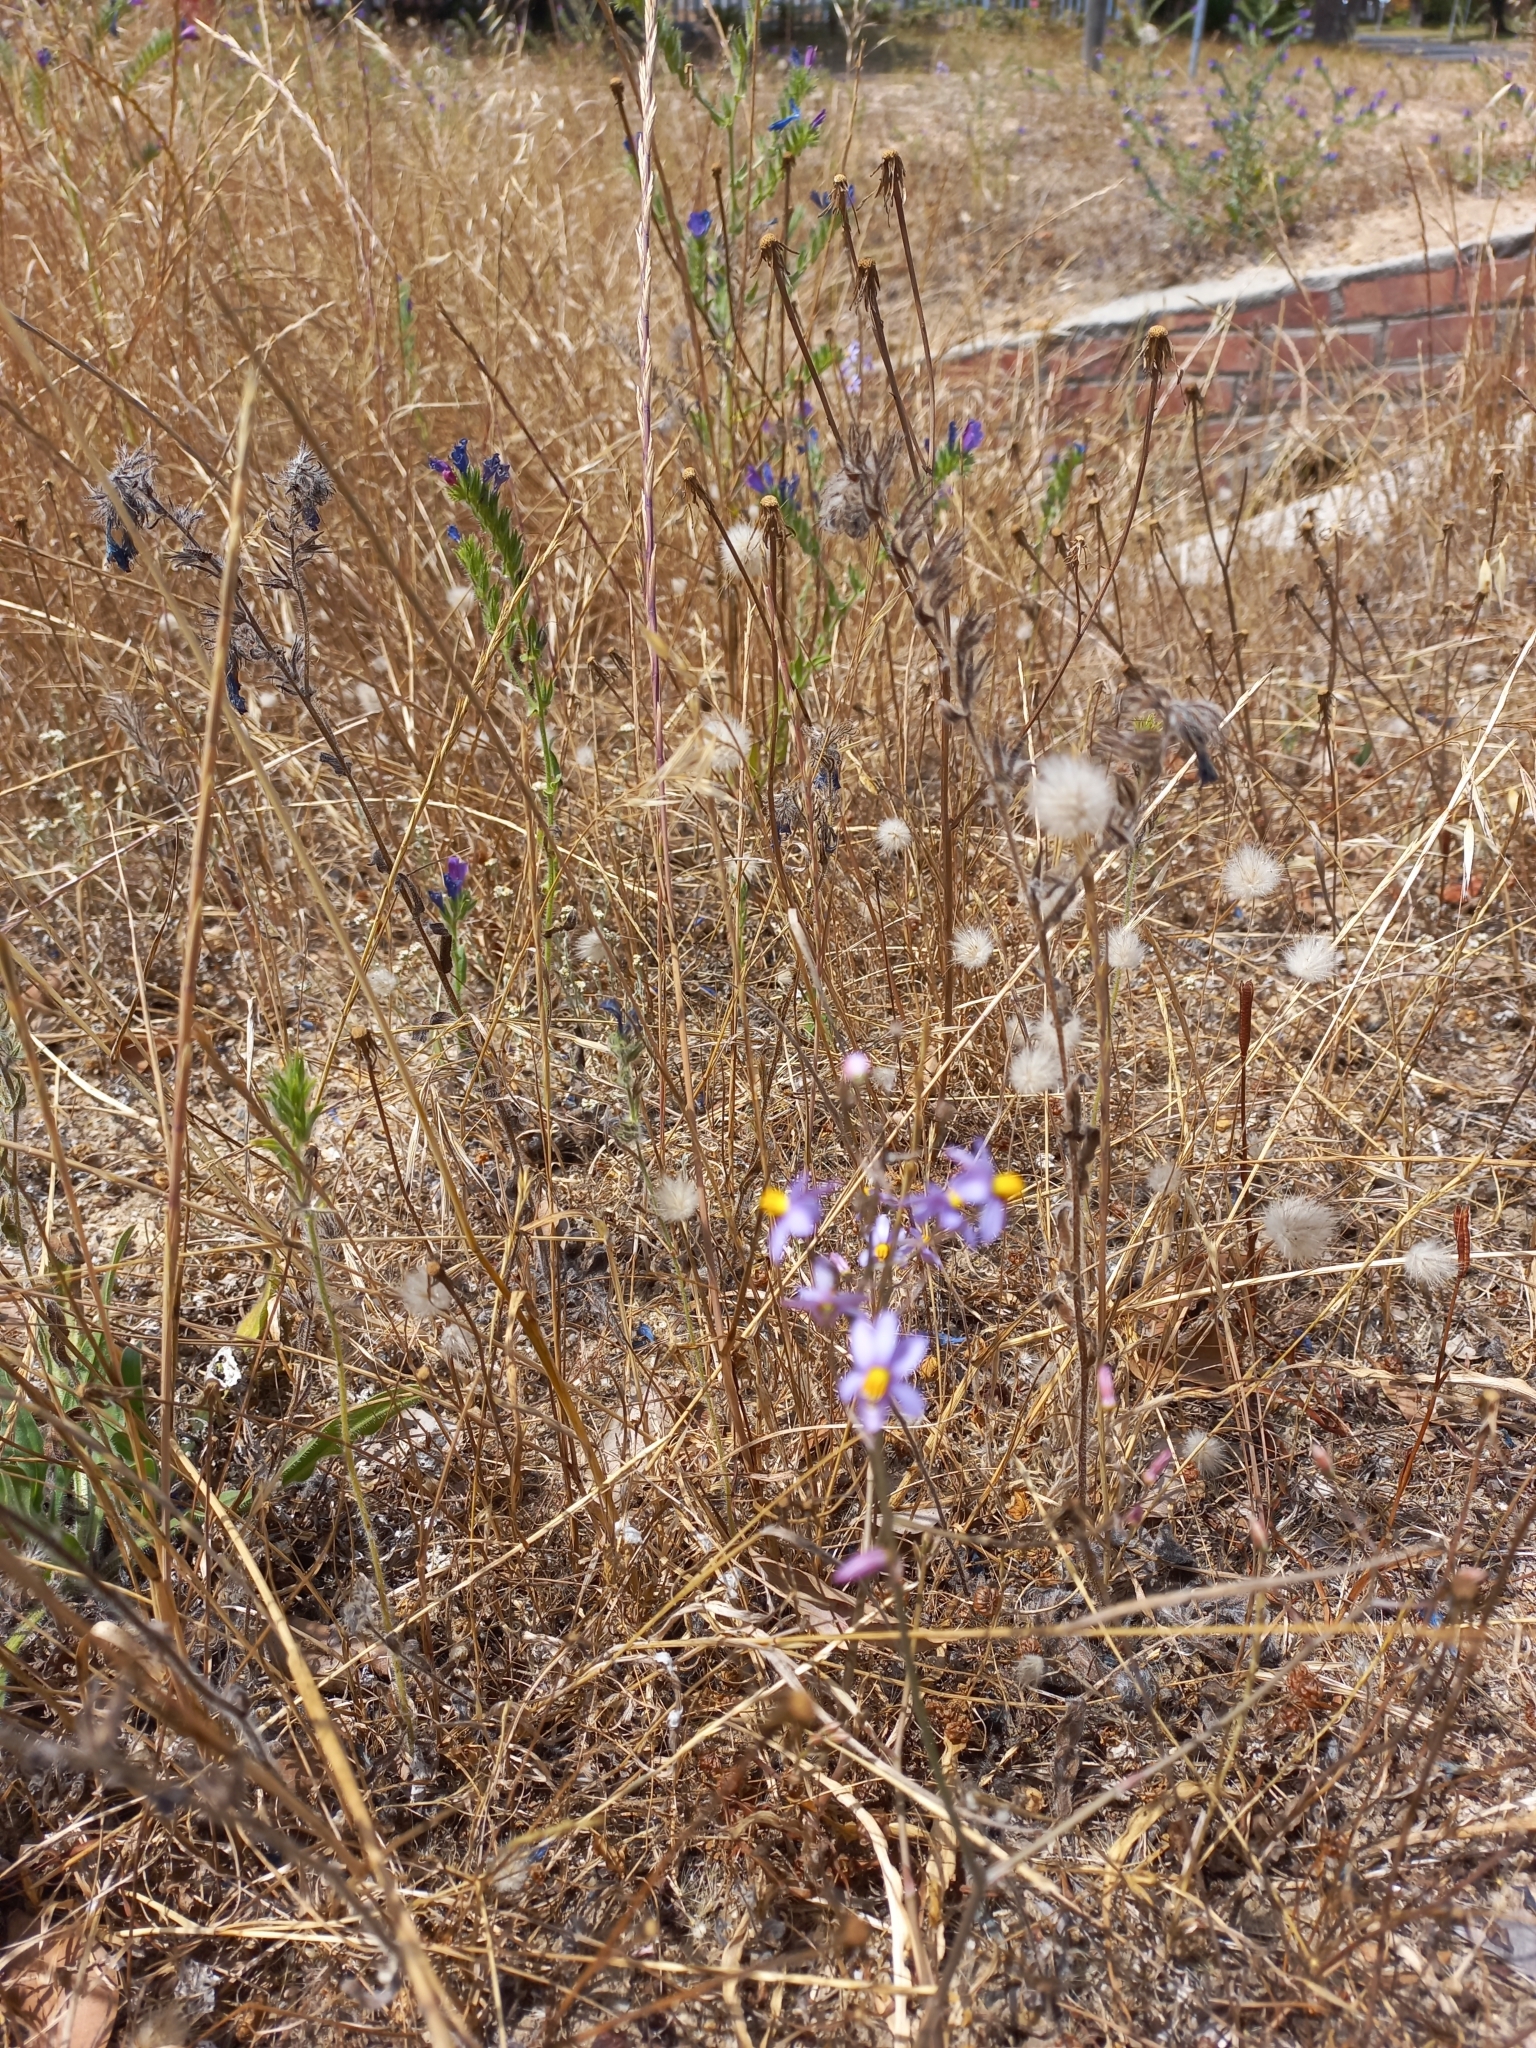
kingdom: Plantae
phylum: Tracheophyta
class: Liliopsida
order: Asparagales
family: Tecophilaeaceae
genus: Cyanella
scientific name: Cyanella hyacinthoides
